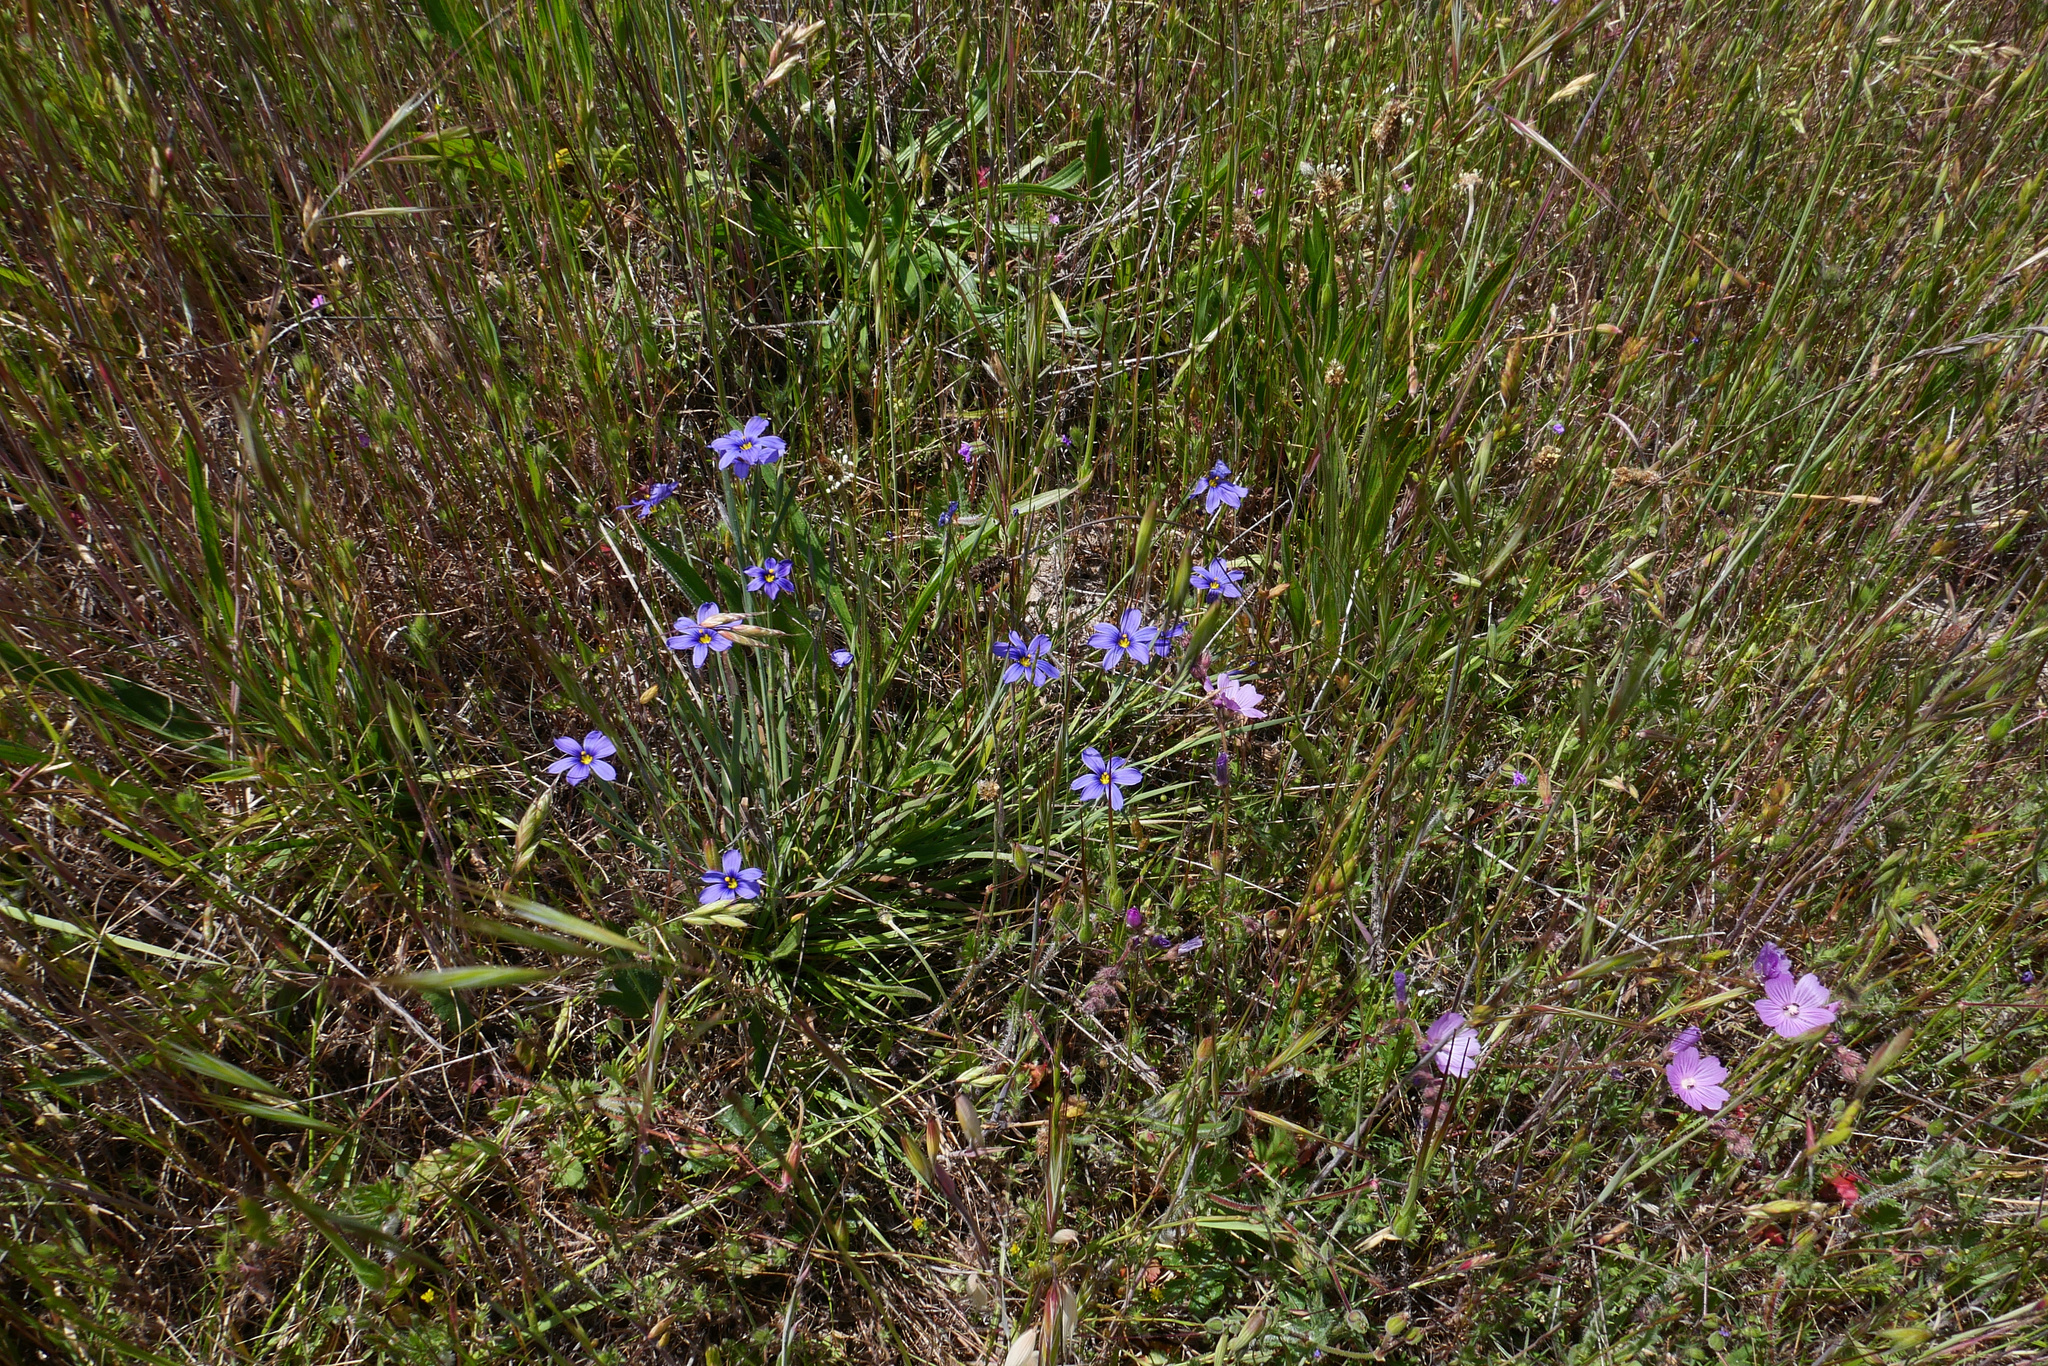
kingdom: Plantae
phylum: Tracheophyta
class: Liliopsida
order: Asparagales
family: Iridaceae
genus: Sisyrinchium
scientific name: Sisyrinchium bellum
